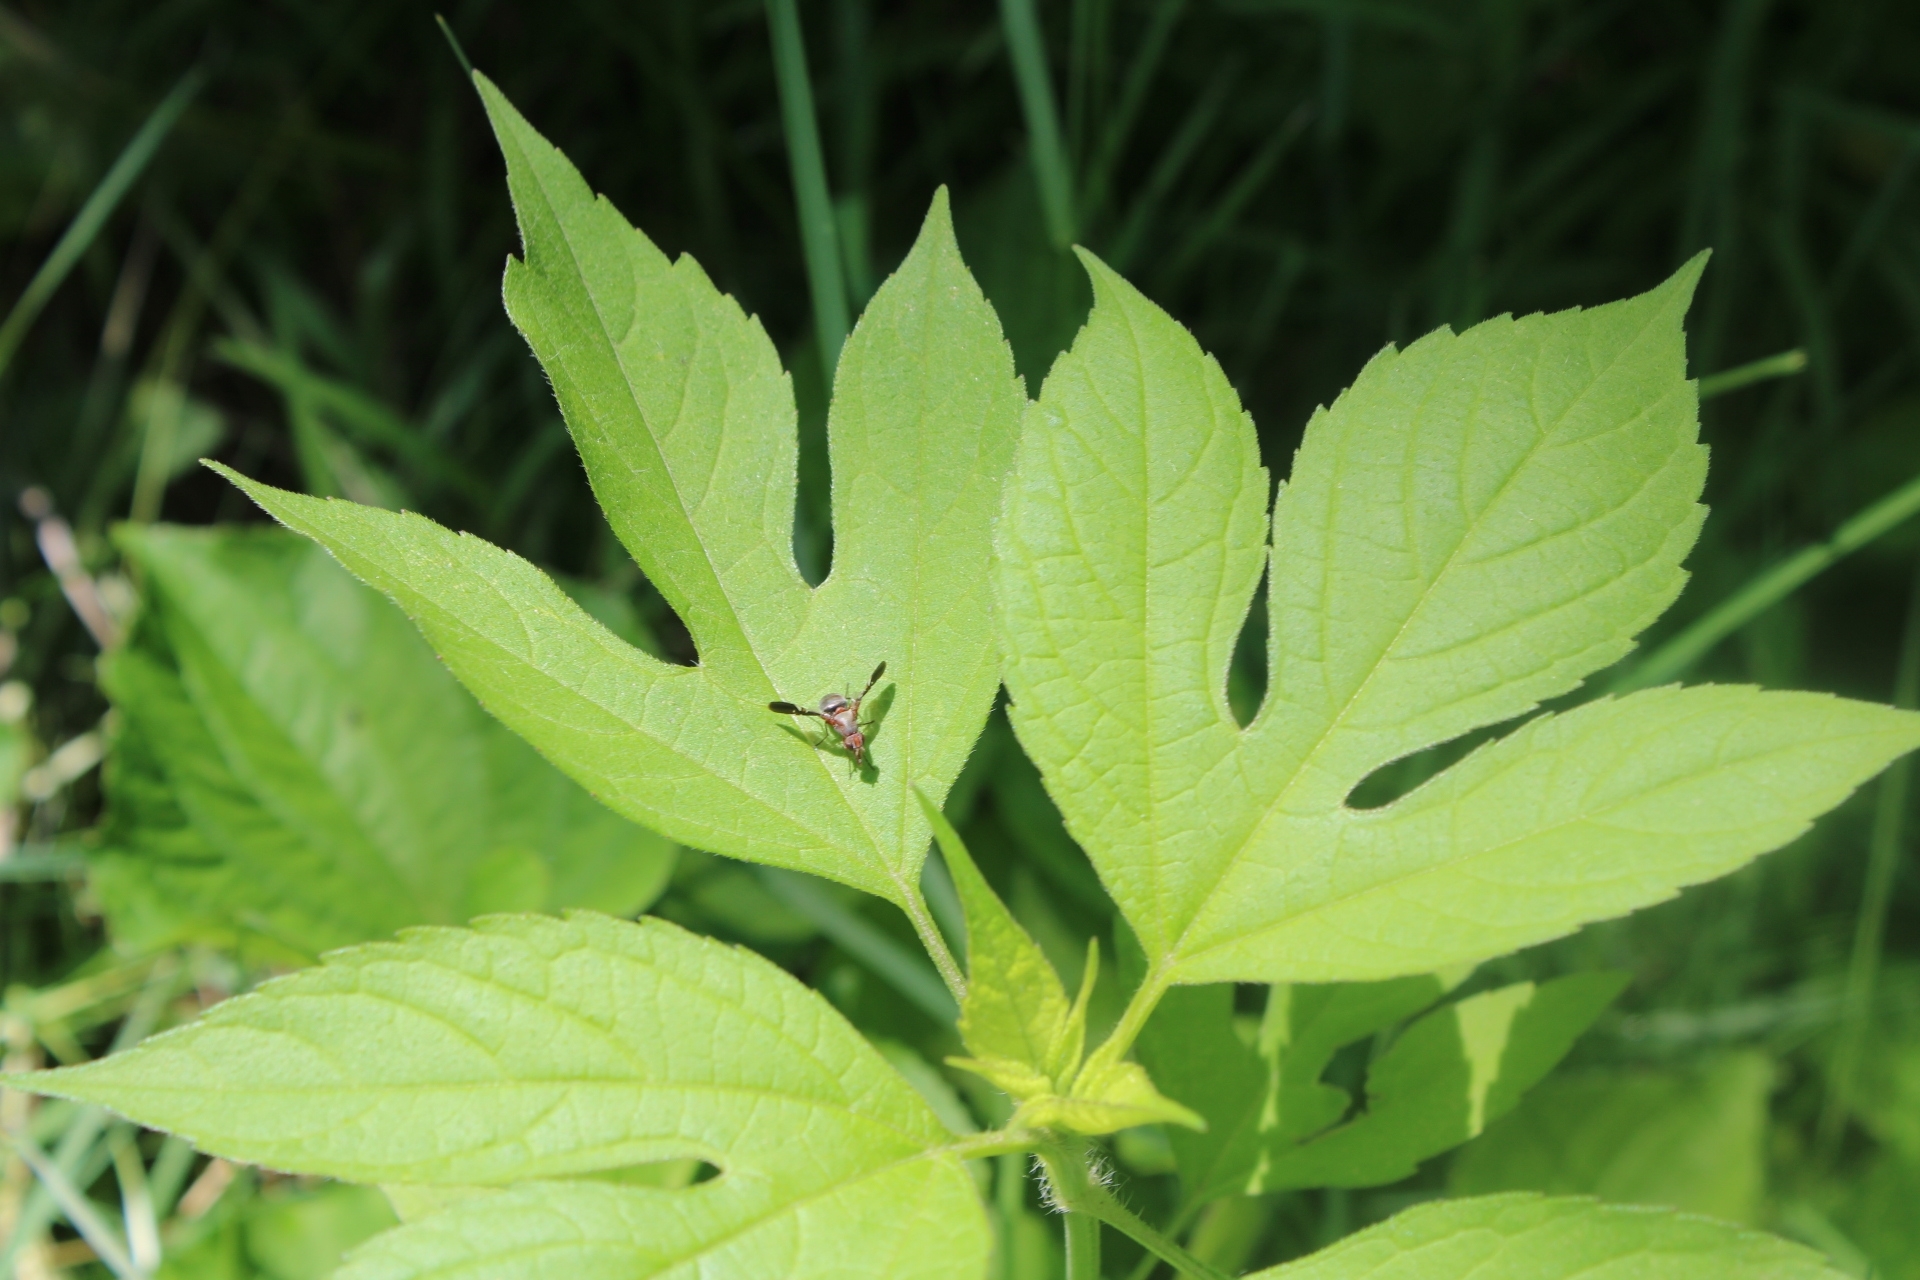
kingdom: Plantae
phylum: Tracheophyta
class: Magnoliopsida
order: Asterales
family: Asteraceae
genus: Ambrosia
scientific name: Ambrosia trifida
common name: Giant ragweed
